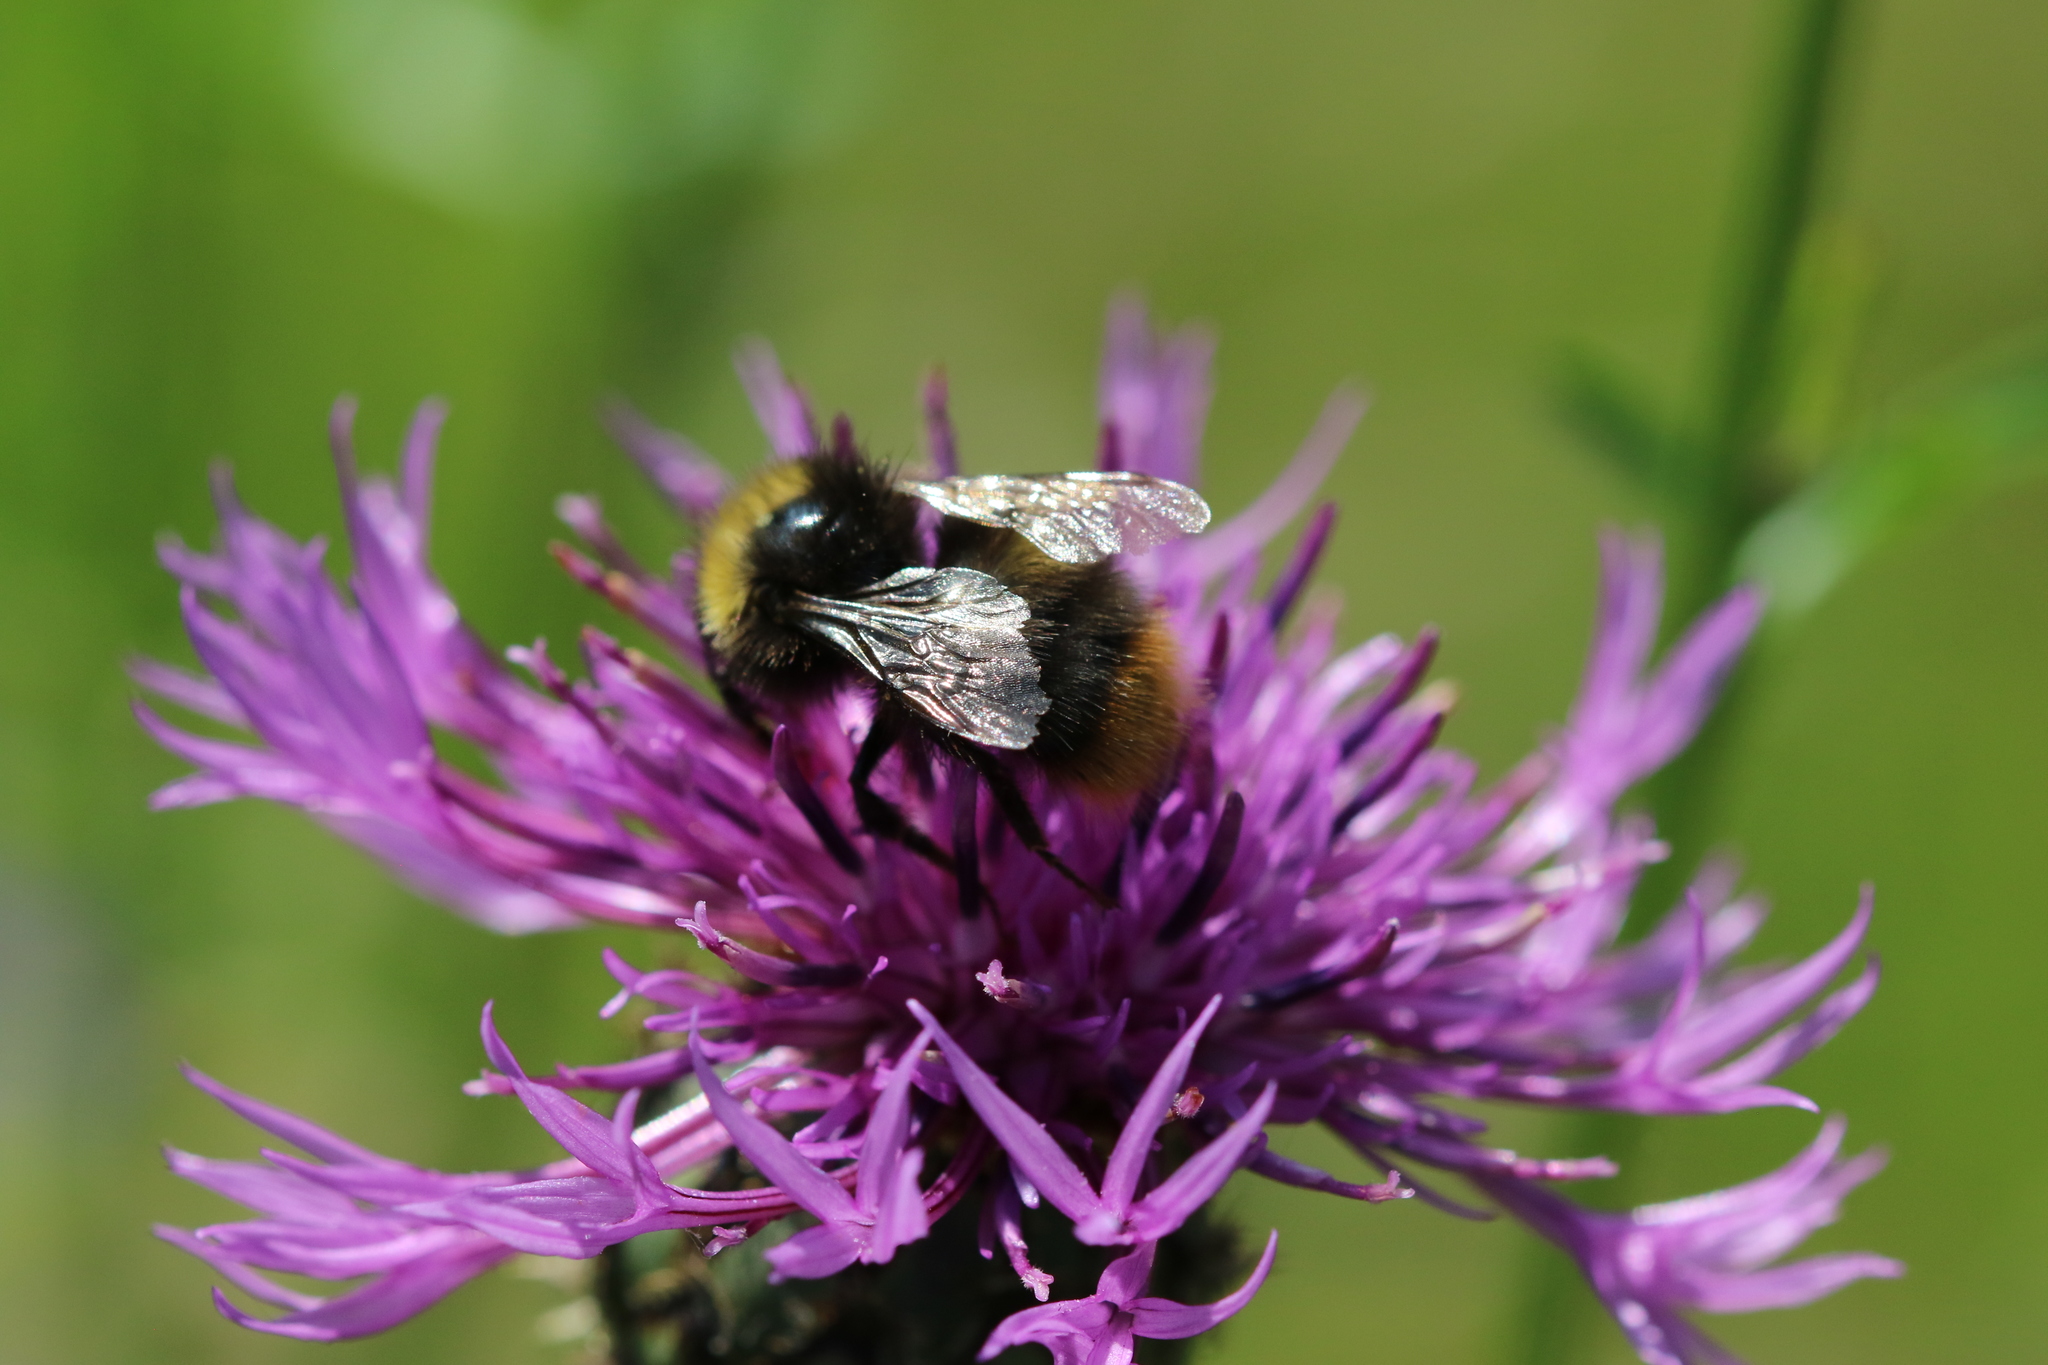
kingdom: Animalia
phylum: Arthropoda
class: Insecta
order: Hymenoptera
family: Apidae
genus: Bombus
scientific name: Bombus pratorum
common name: Early humble-bee
